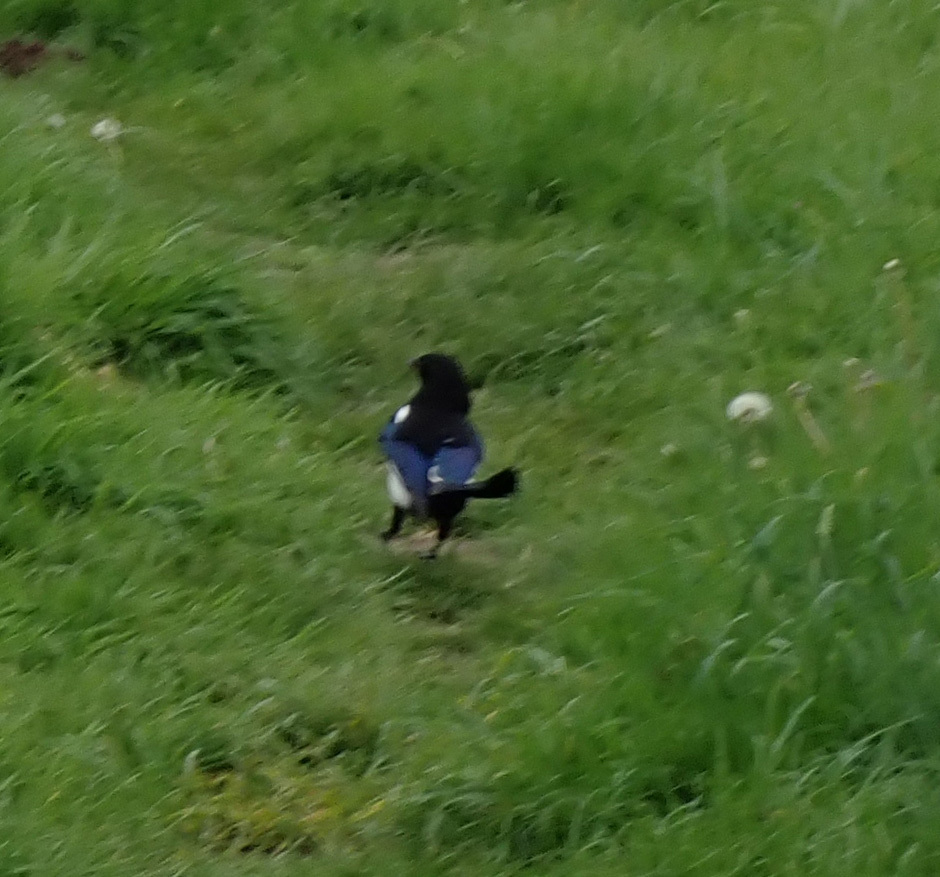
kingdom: Animalia
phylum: Chordata
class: Aves
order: Passeriformes
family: Corvidae
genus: Pica
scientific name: Pica pica
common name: Eurasian magpie
